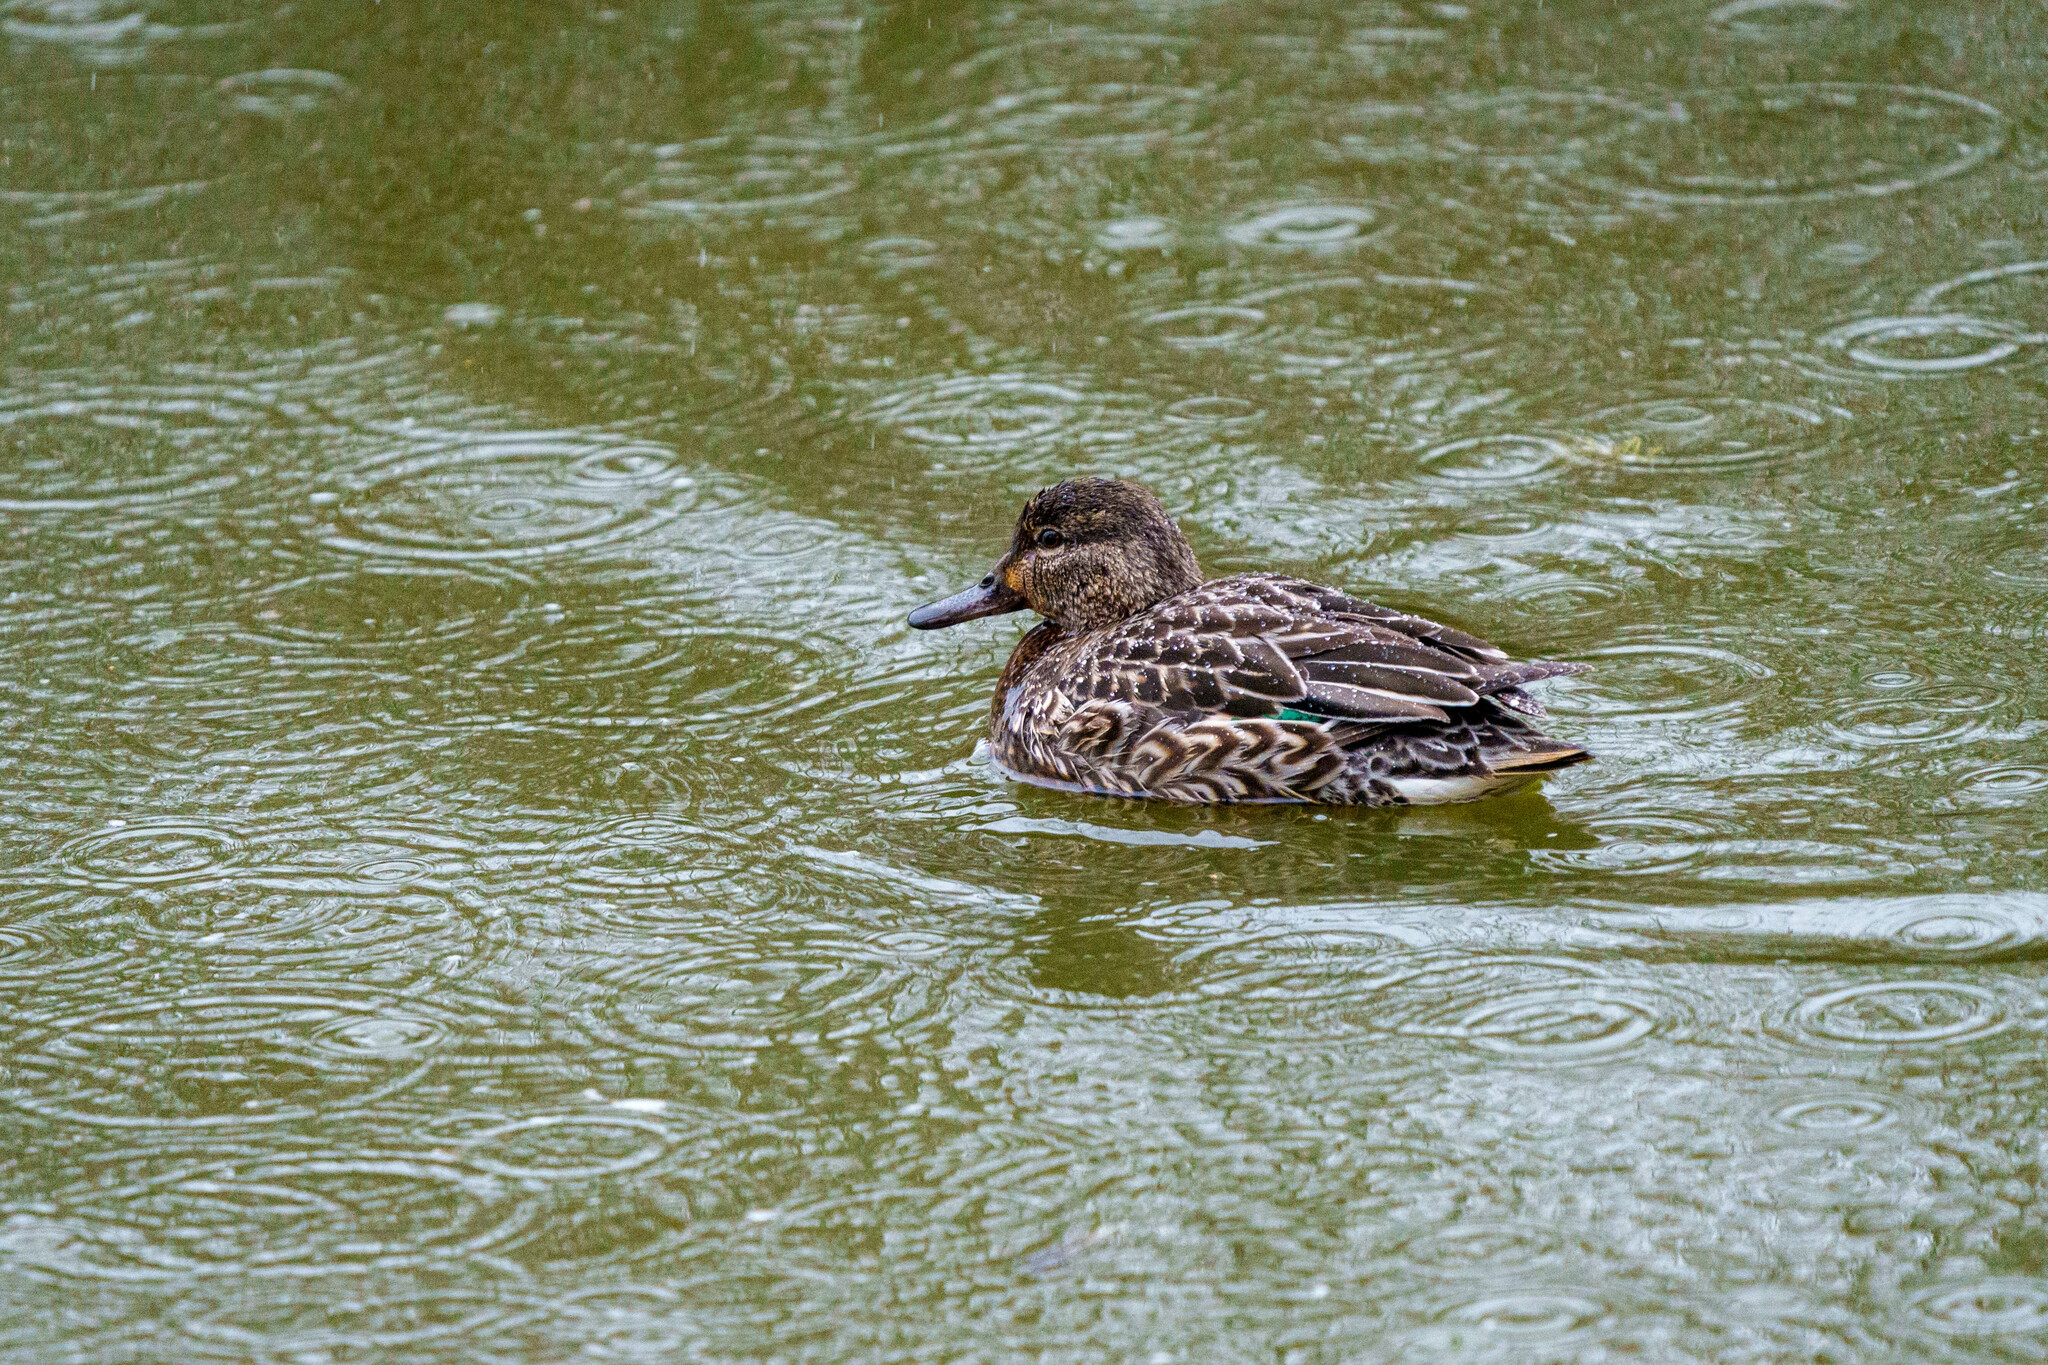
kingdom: Animalia
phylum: Chordata
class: Aves
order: Anseriformes
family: Anatidae
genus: Anas
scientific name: Anas crecca
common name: Eurasian teal
